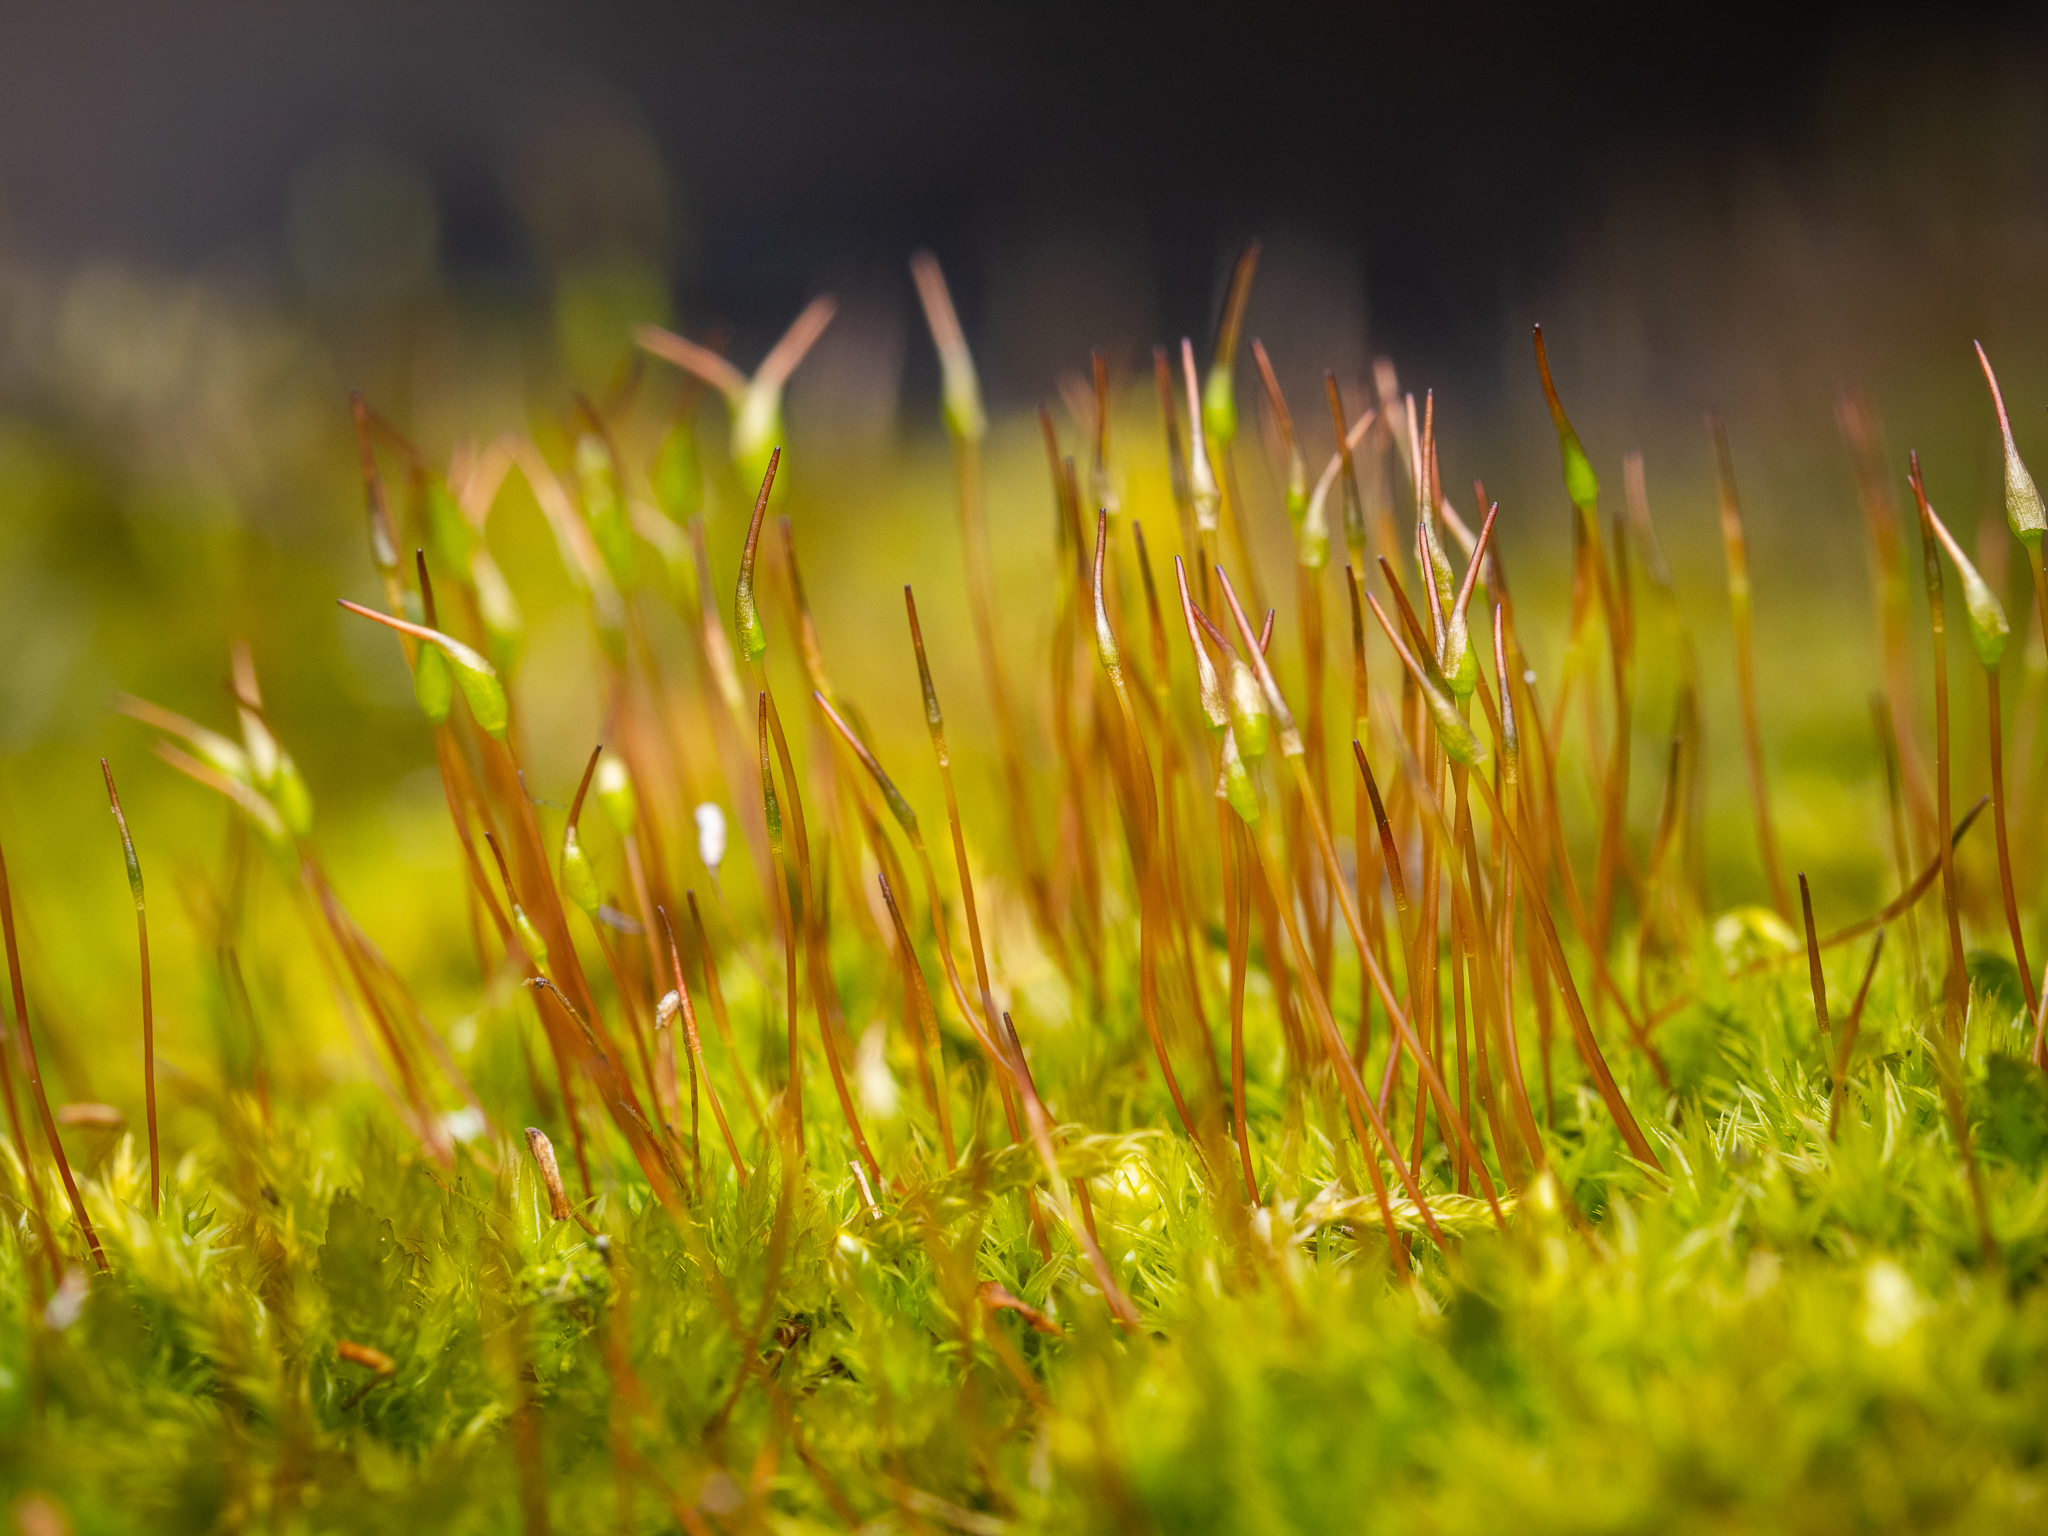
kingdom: Plantae
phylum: Bryophyta
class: Bryopsida
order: Dicranales
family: Ditrichaceae
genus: Ceratodon
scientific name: Ceratodon purpureus
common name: Redshank
